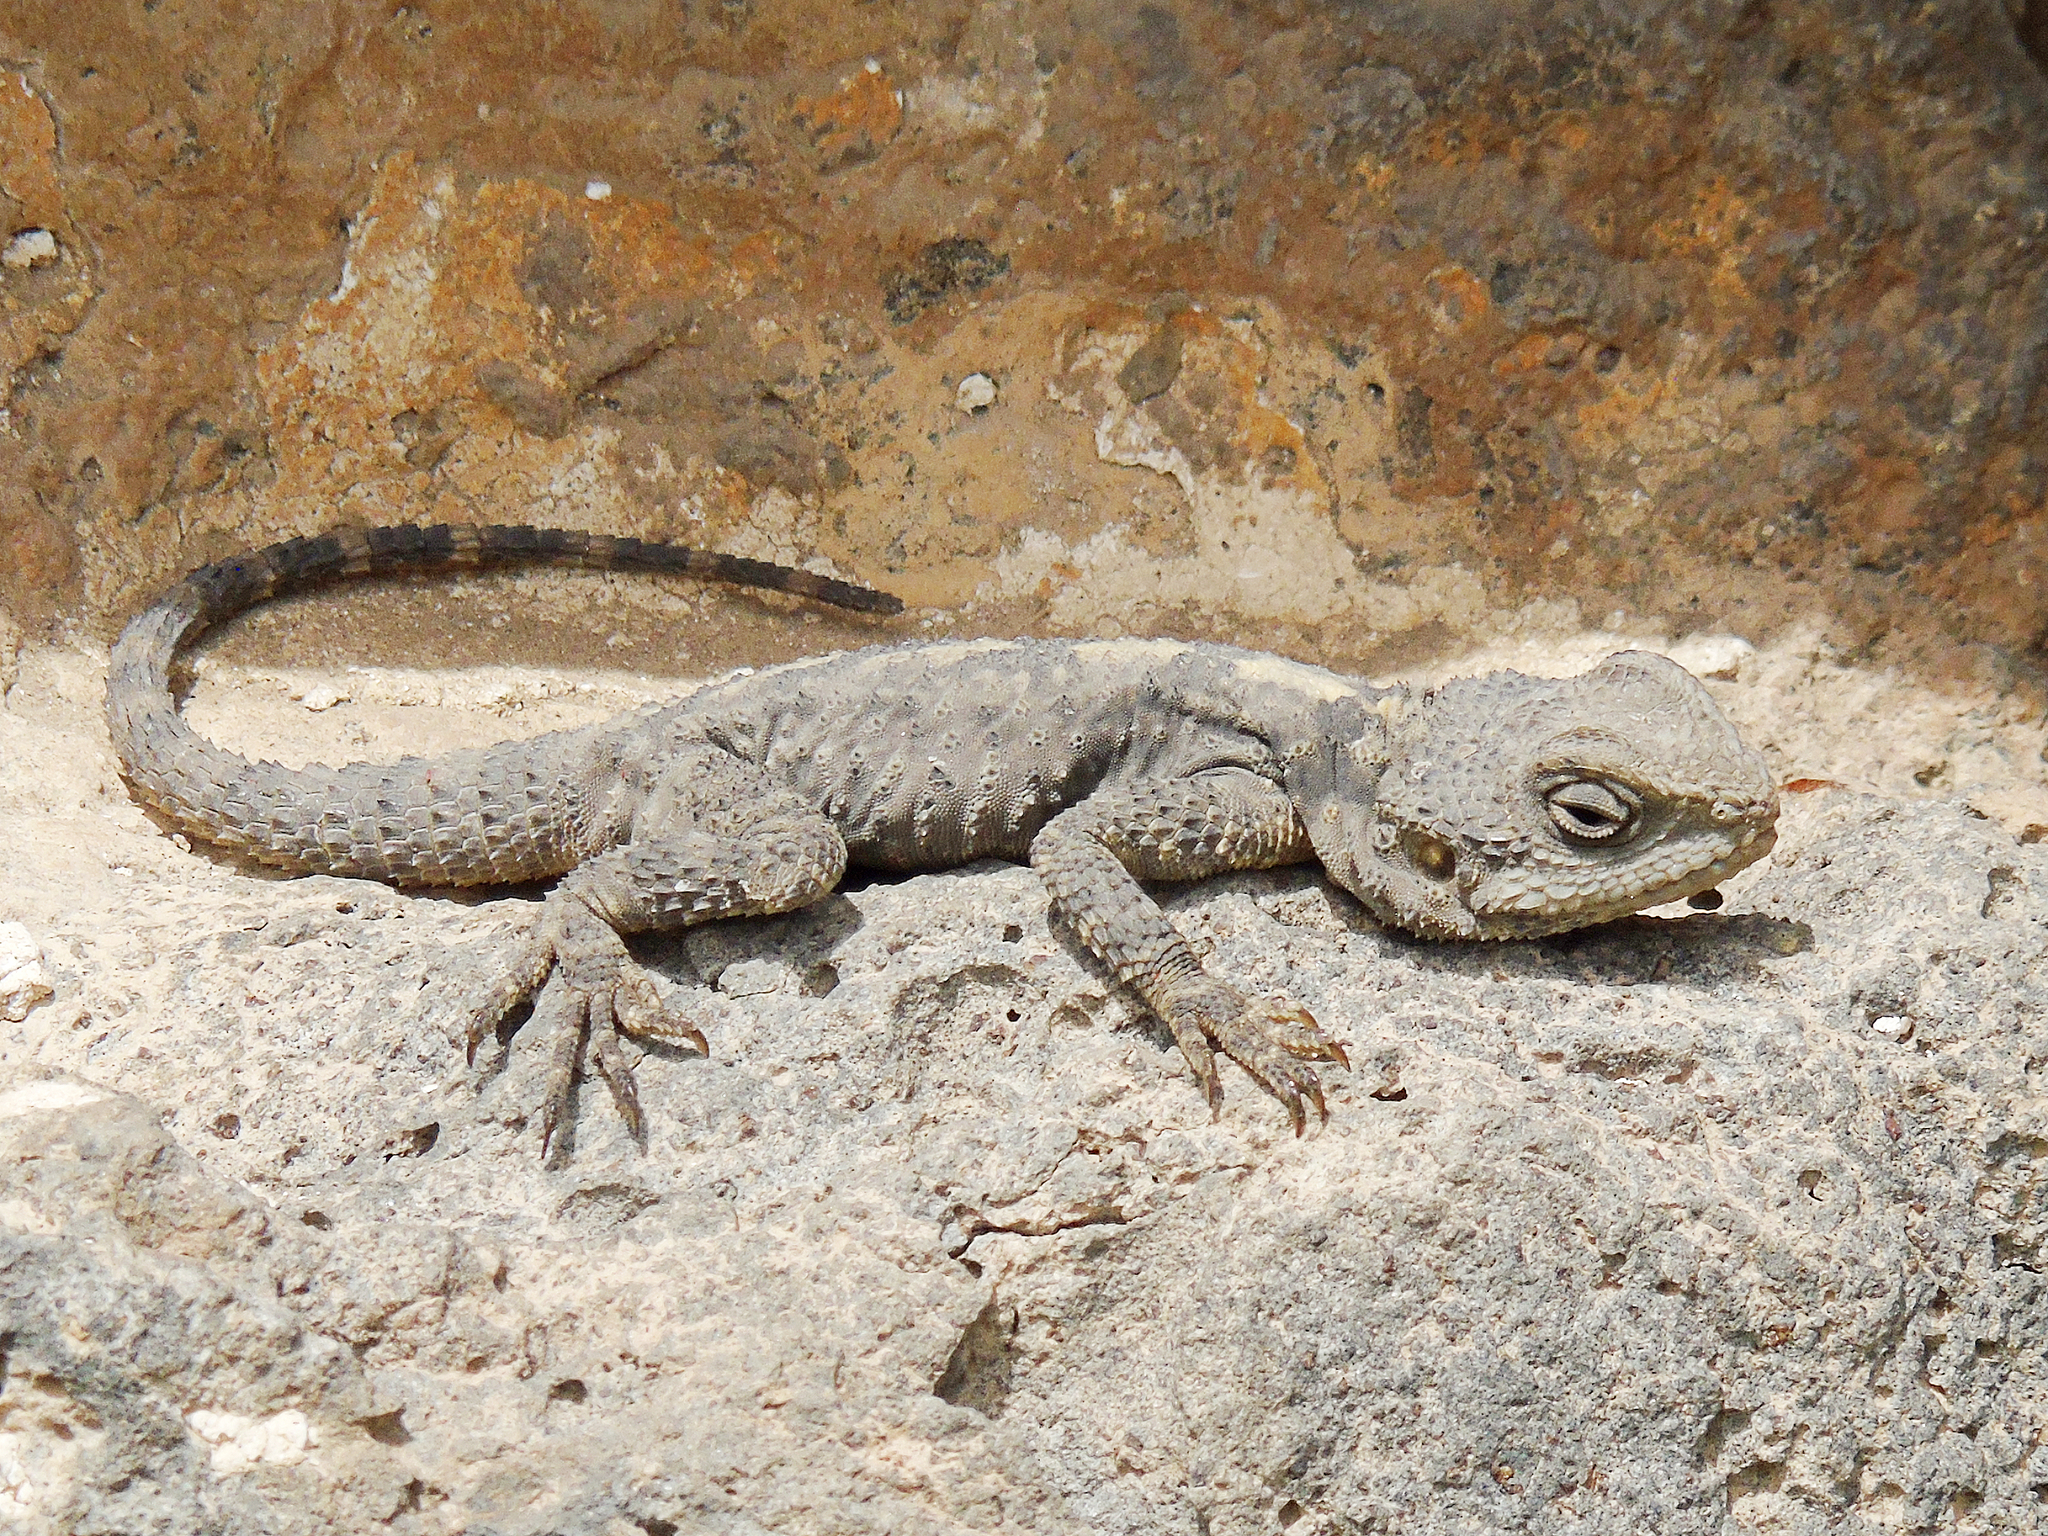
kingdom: Animalia
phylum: Chordata
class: Squamata
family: Agamidae
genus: Stellagama
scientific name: Stellagama stellio
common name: Starred agama
